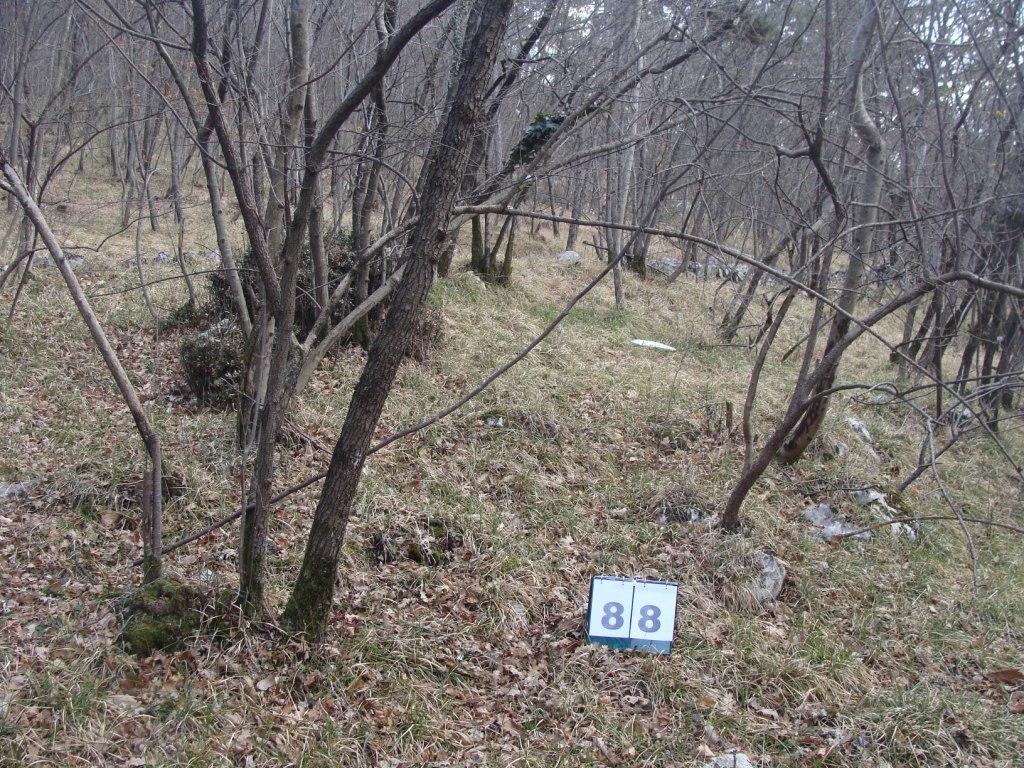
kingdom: Plantae
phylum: Tracheophyta
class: Magnoliopsida
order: Cornales
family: Cornaceae
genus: Cornus
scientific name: Cornus mas
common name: Cornelian-cherry
